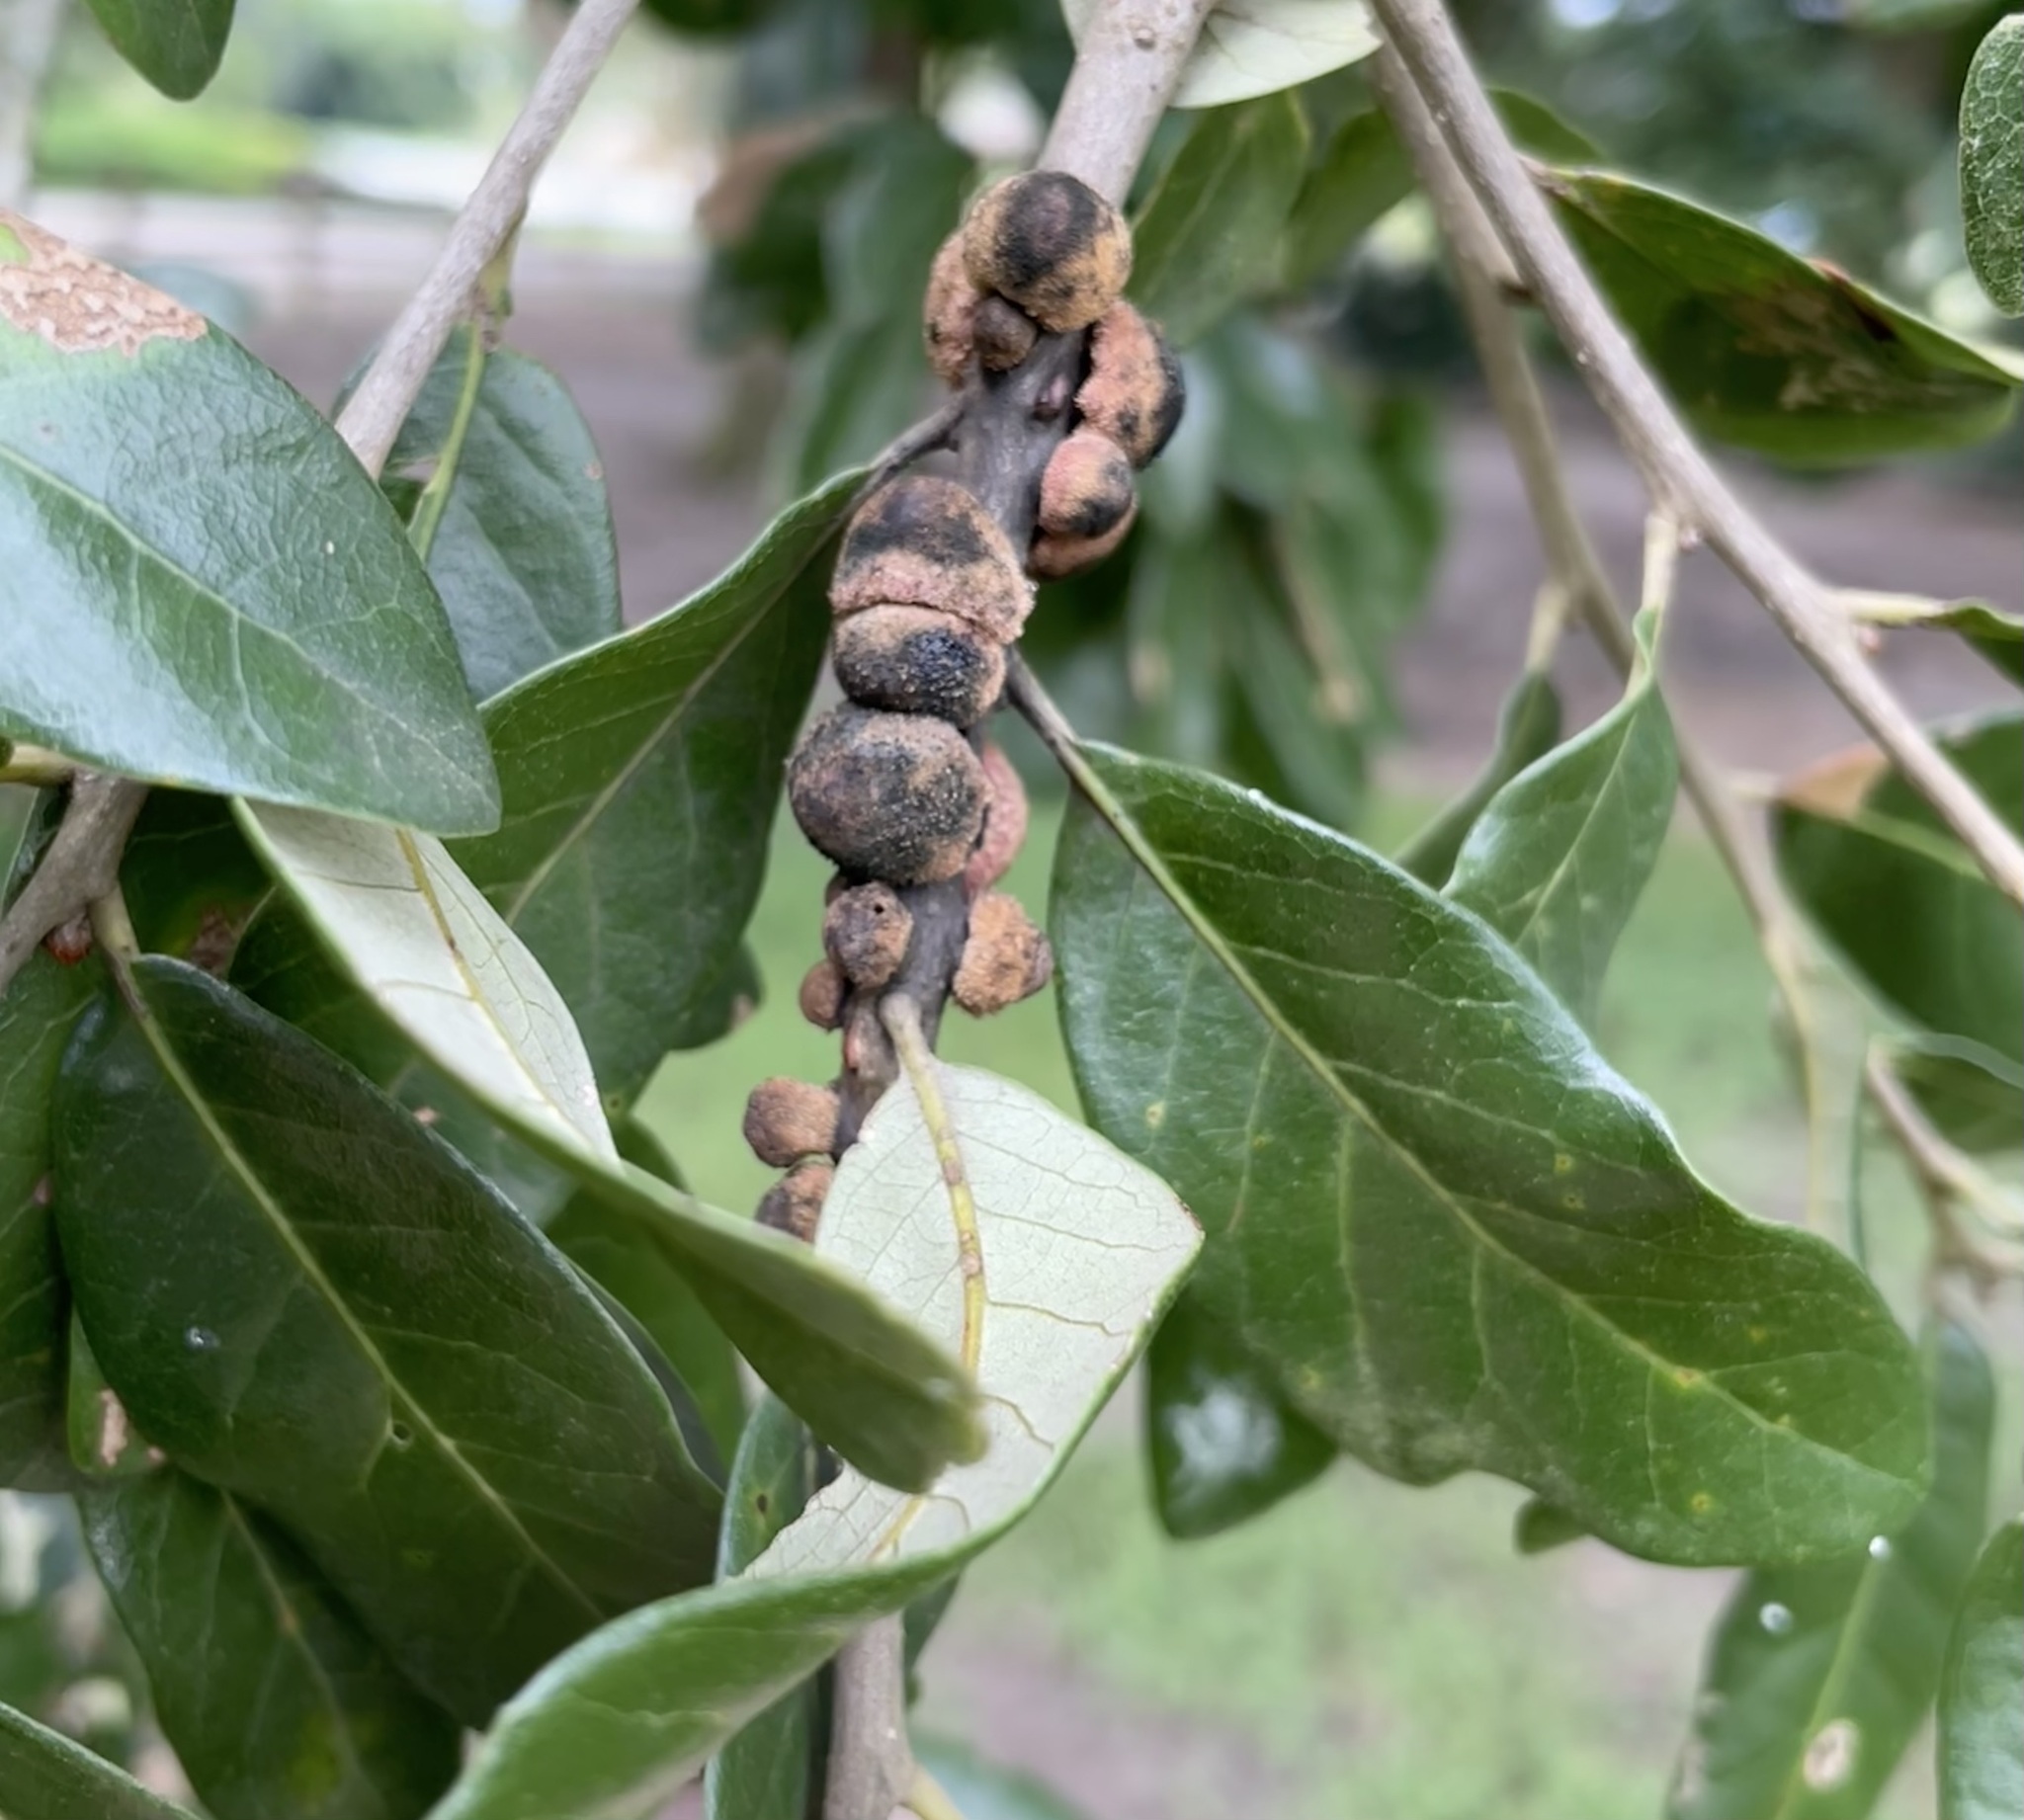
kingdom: Animalia
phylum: Arthropoda
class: Insecta
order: Hymenoptera
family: Cynipidae
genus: Disholcaspis
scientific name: Disholcaspis
